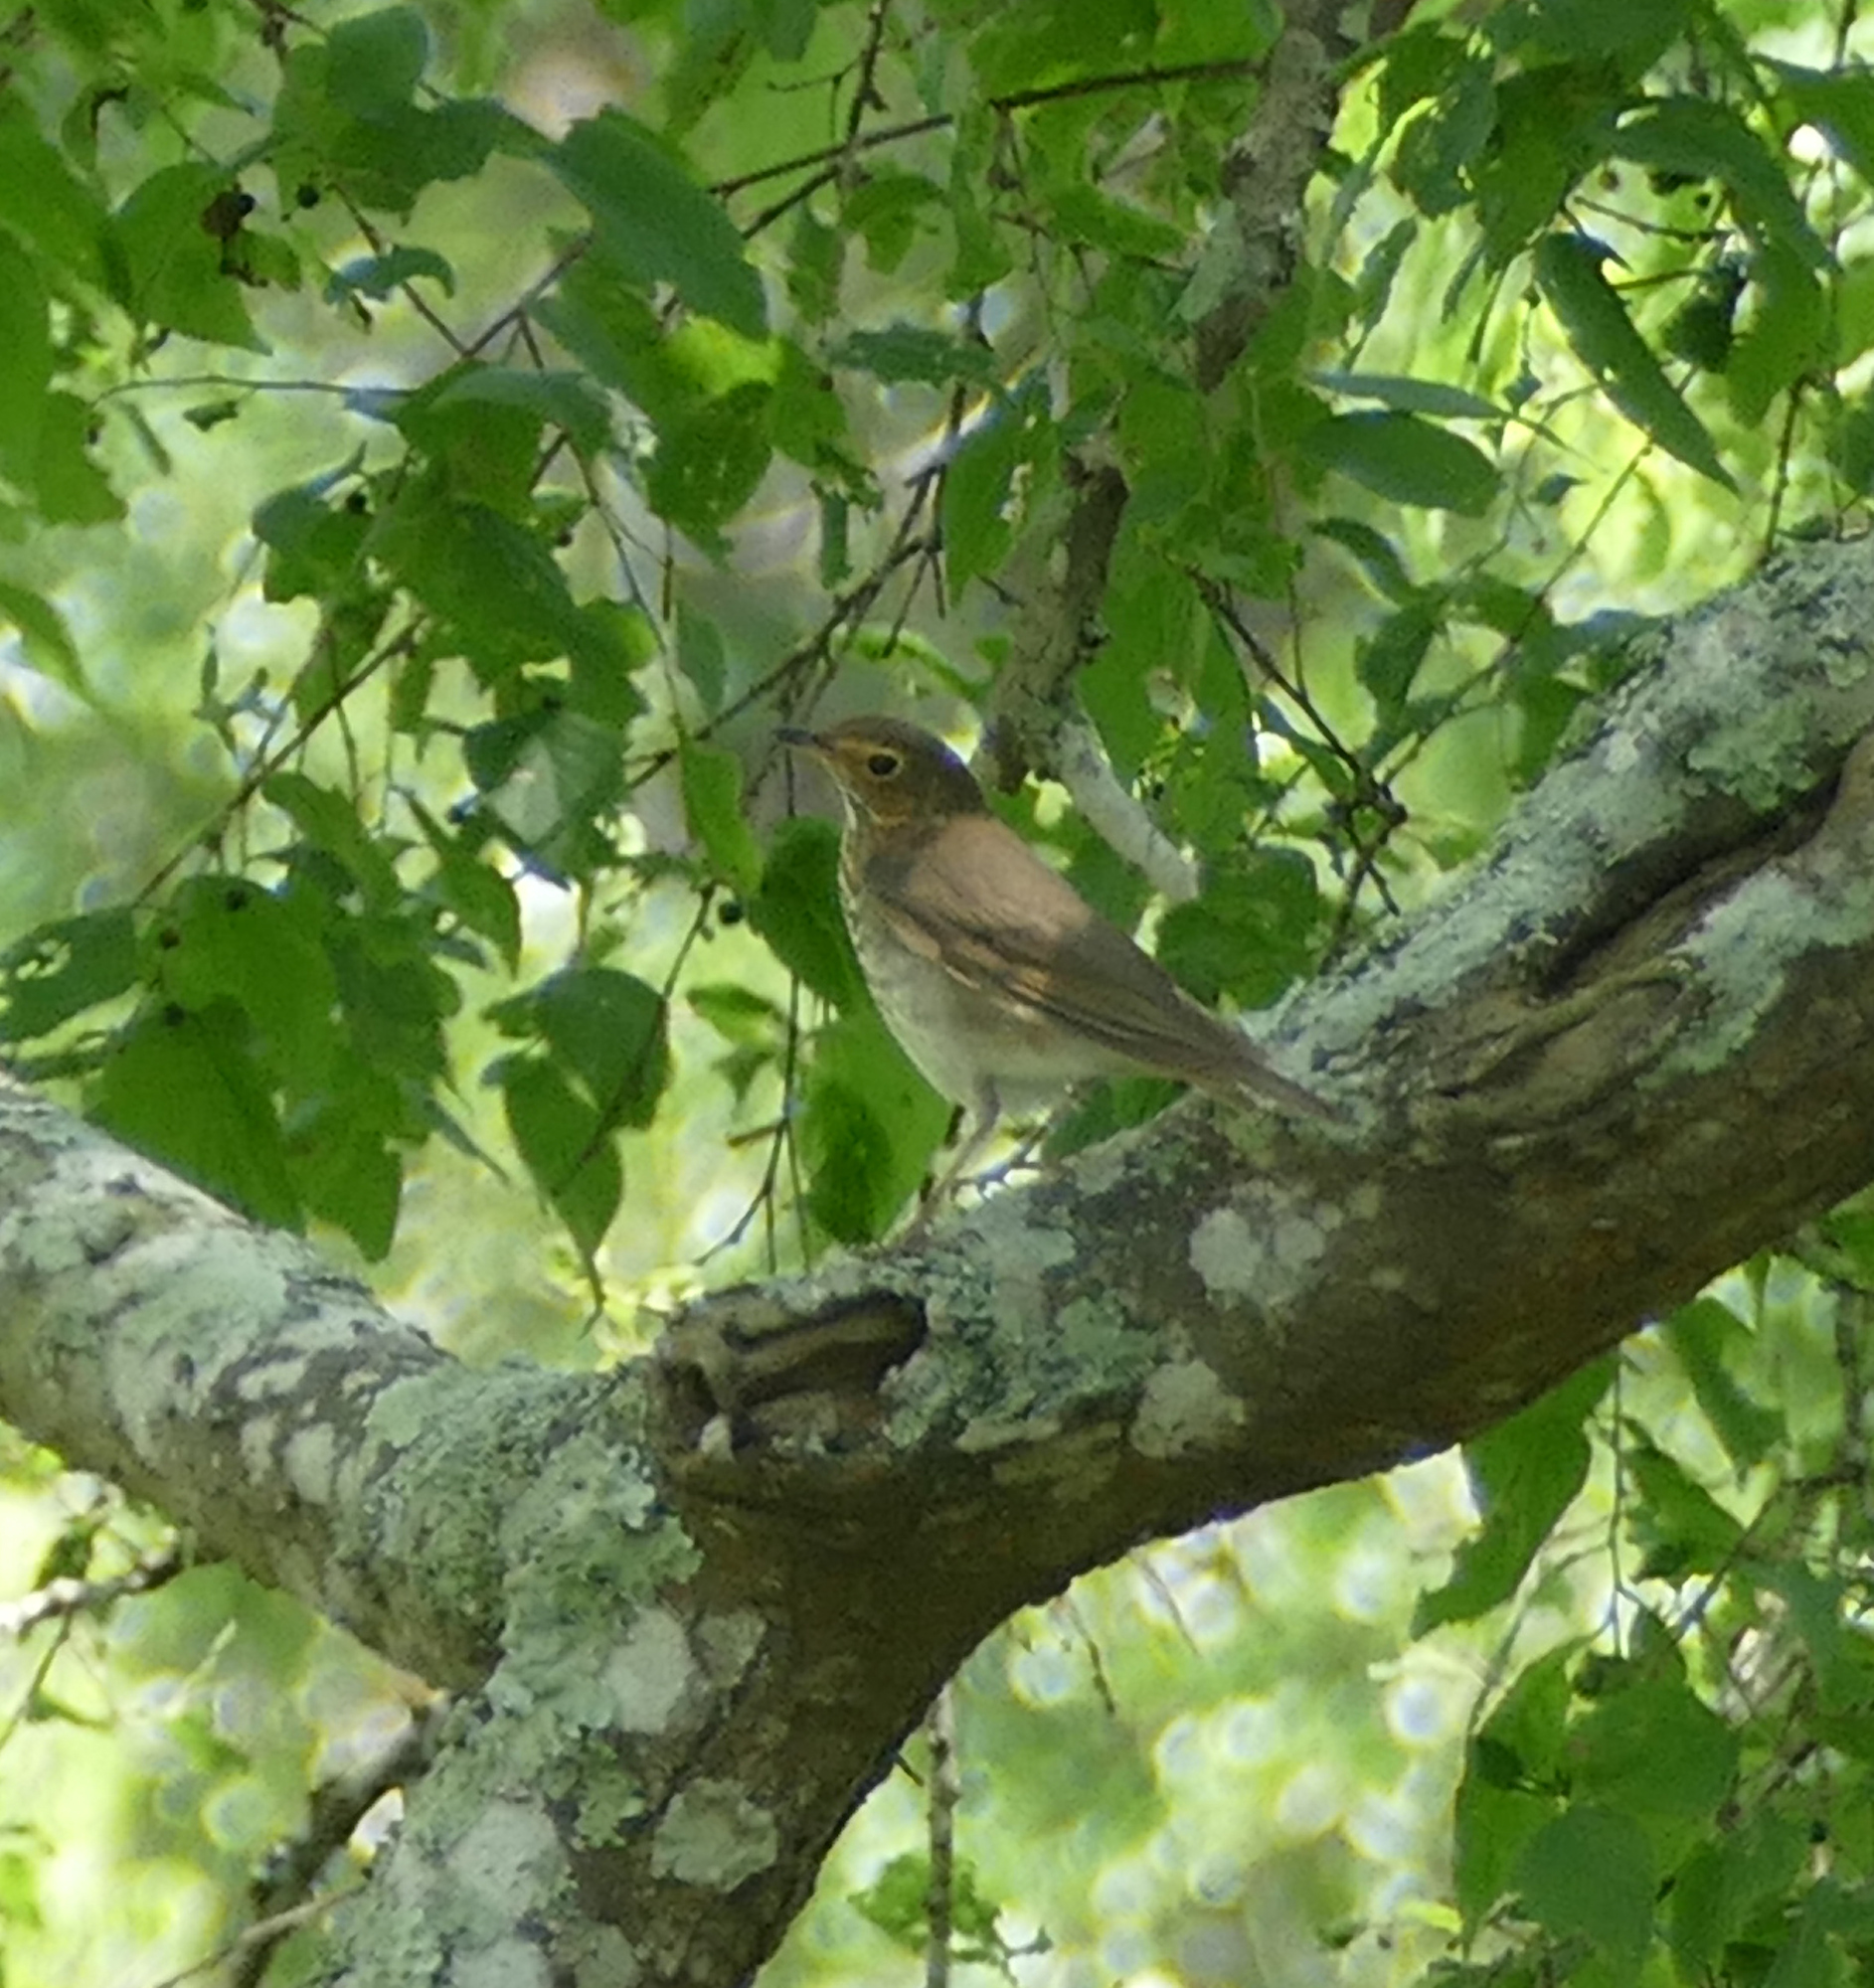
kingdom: Animalia
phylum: Chordata
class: Aves
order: Passeriformes
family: Turdidae
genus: Catharus
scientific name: Catharus ustulatus
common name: Swainson's thrush
